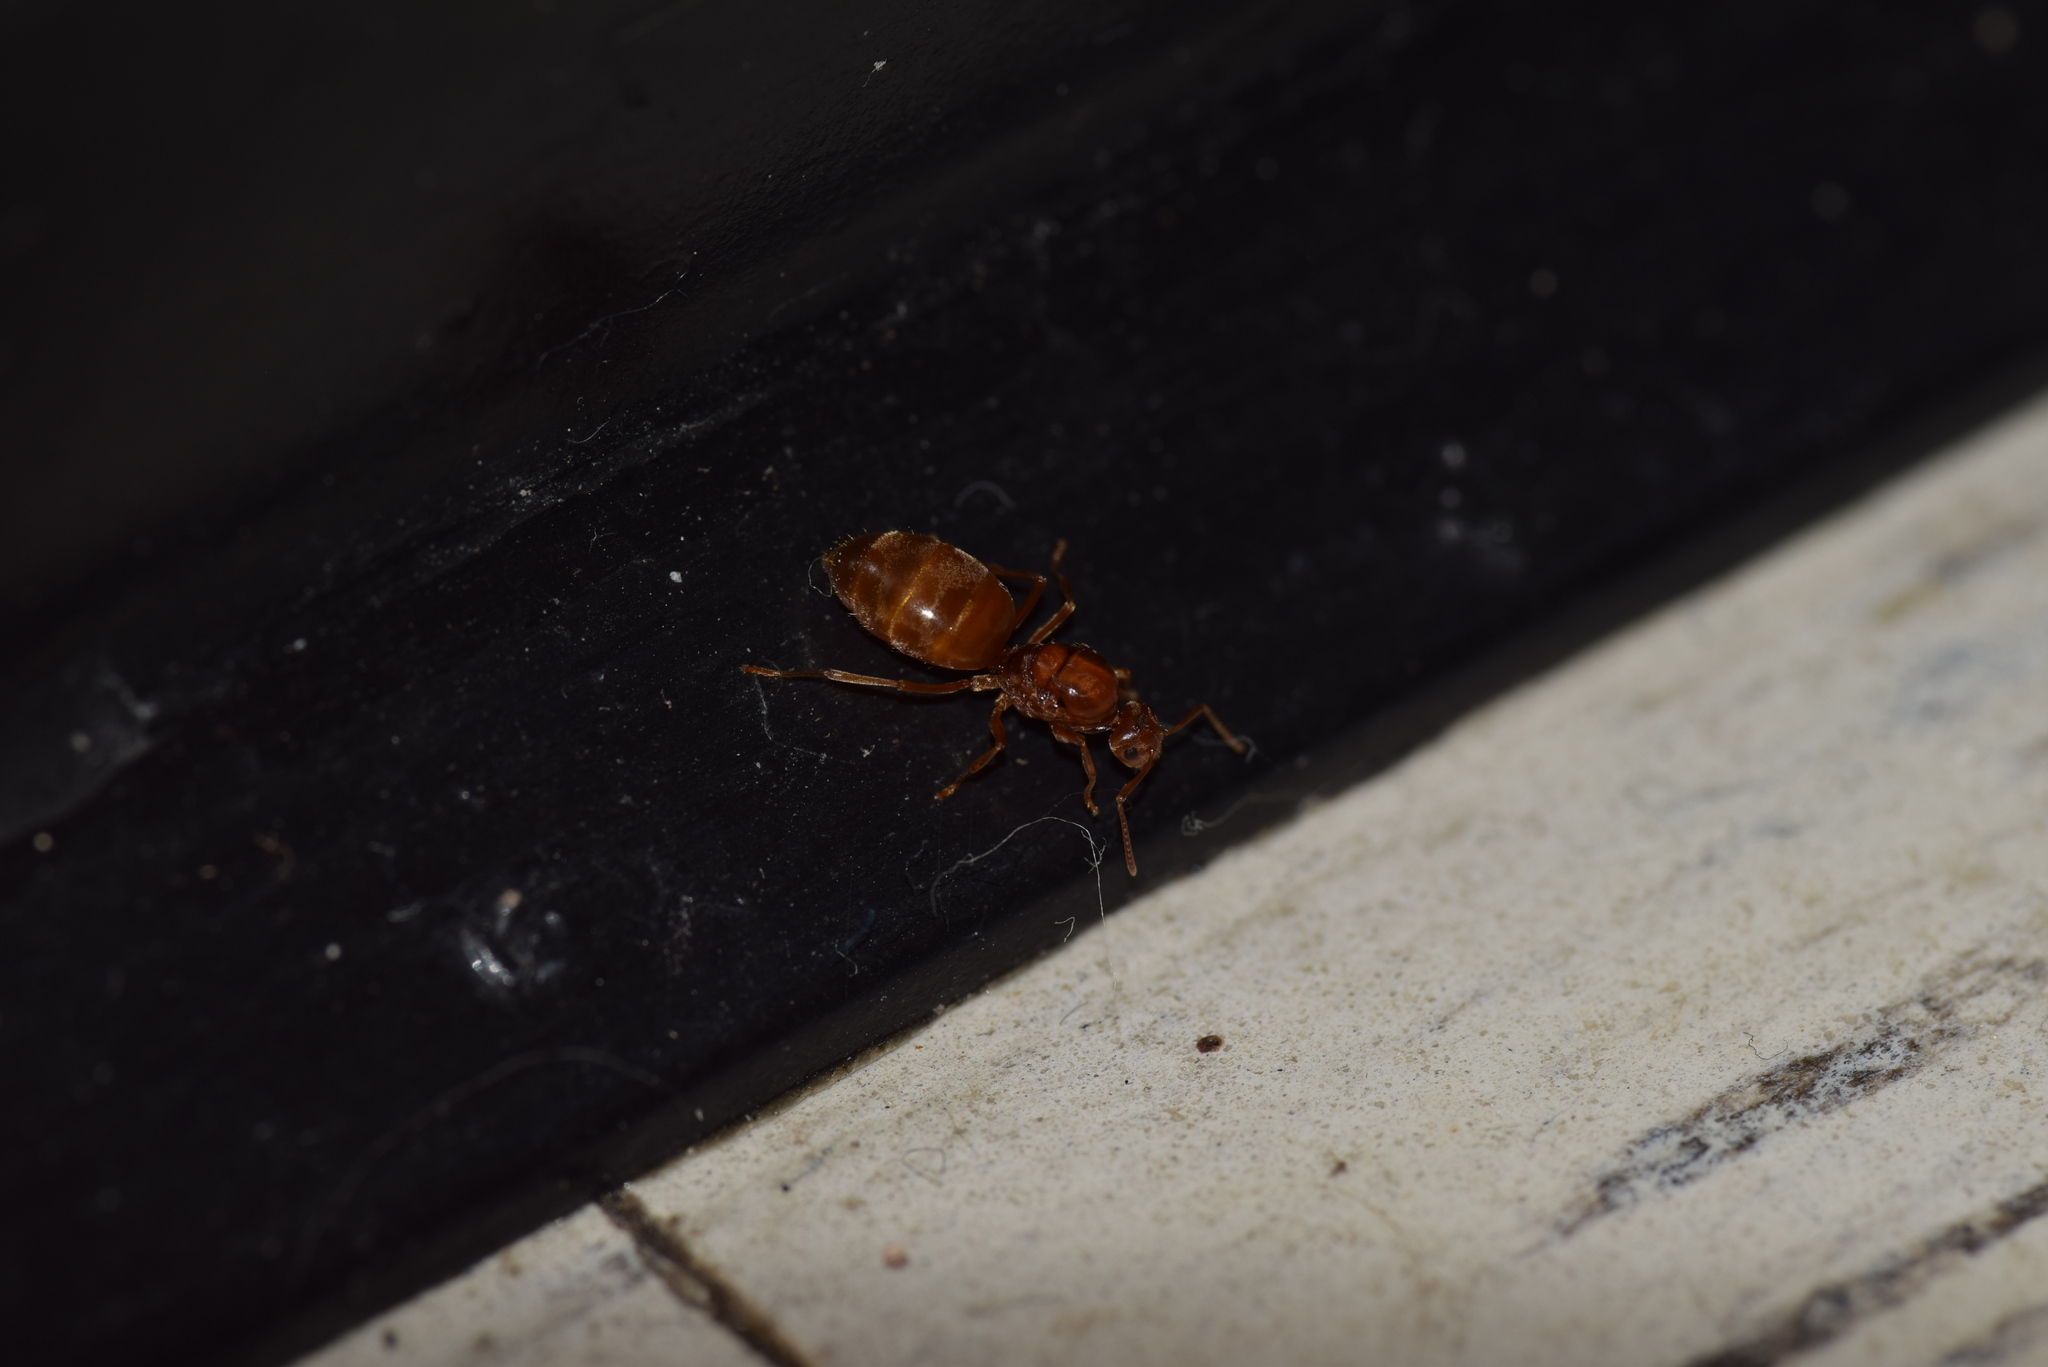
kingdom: Animalia
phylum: Arthropoda
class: Insecta
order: Hymenoptera
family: Formicidae
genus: Prenolepis
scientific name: Prenolepis imparis
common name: Small honey ant
